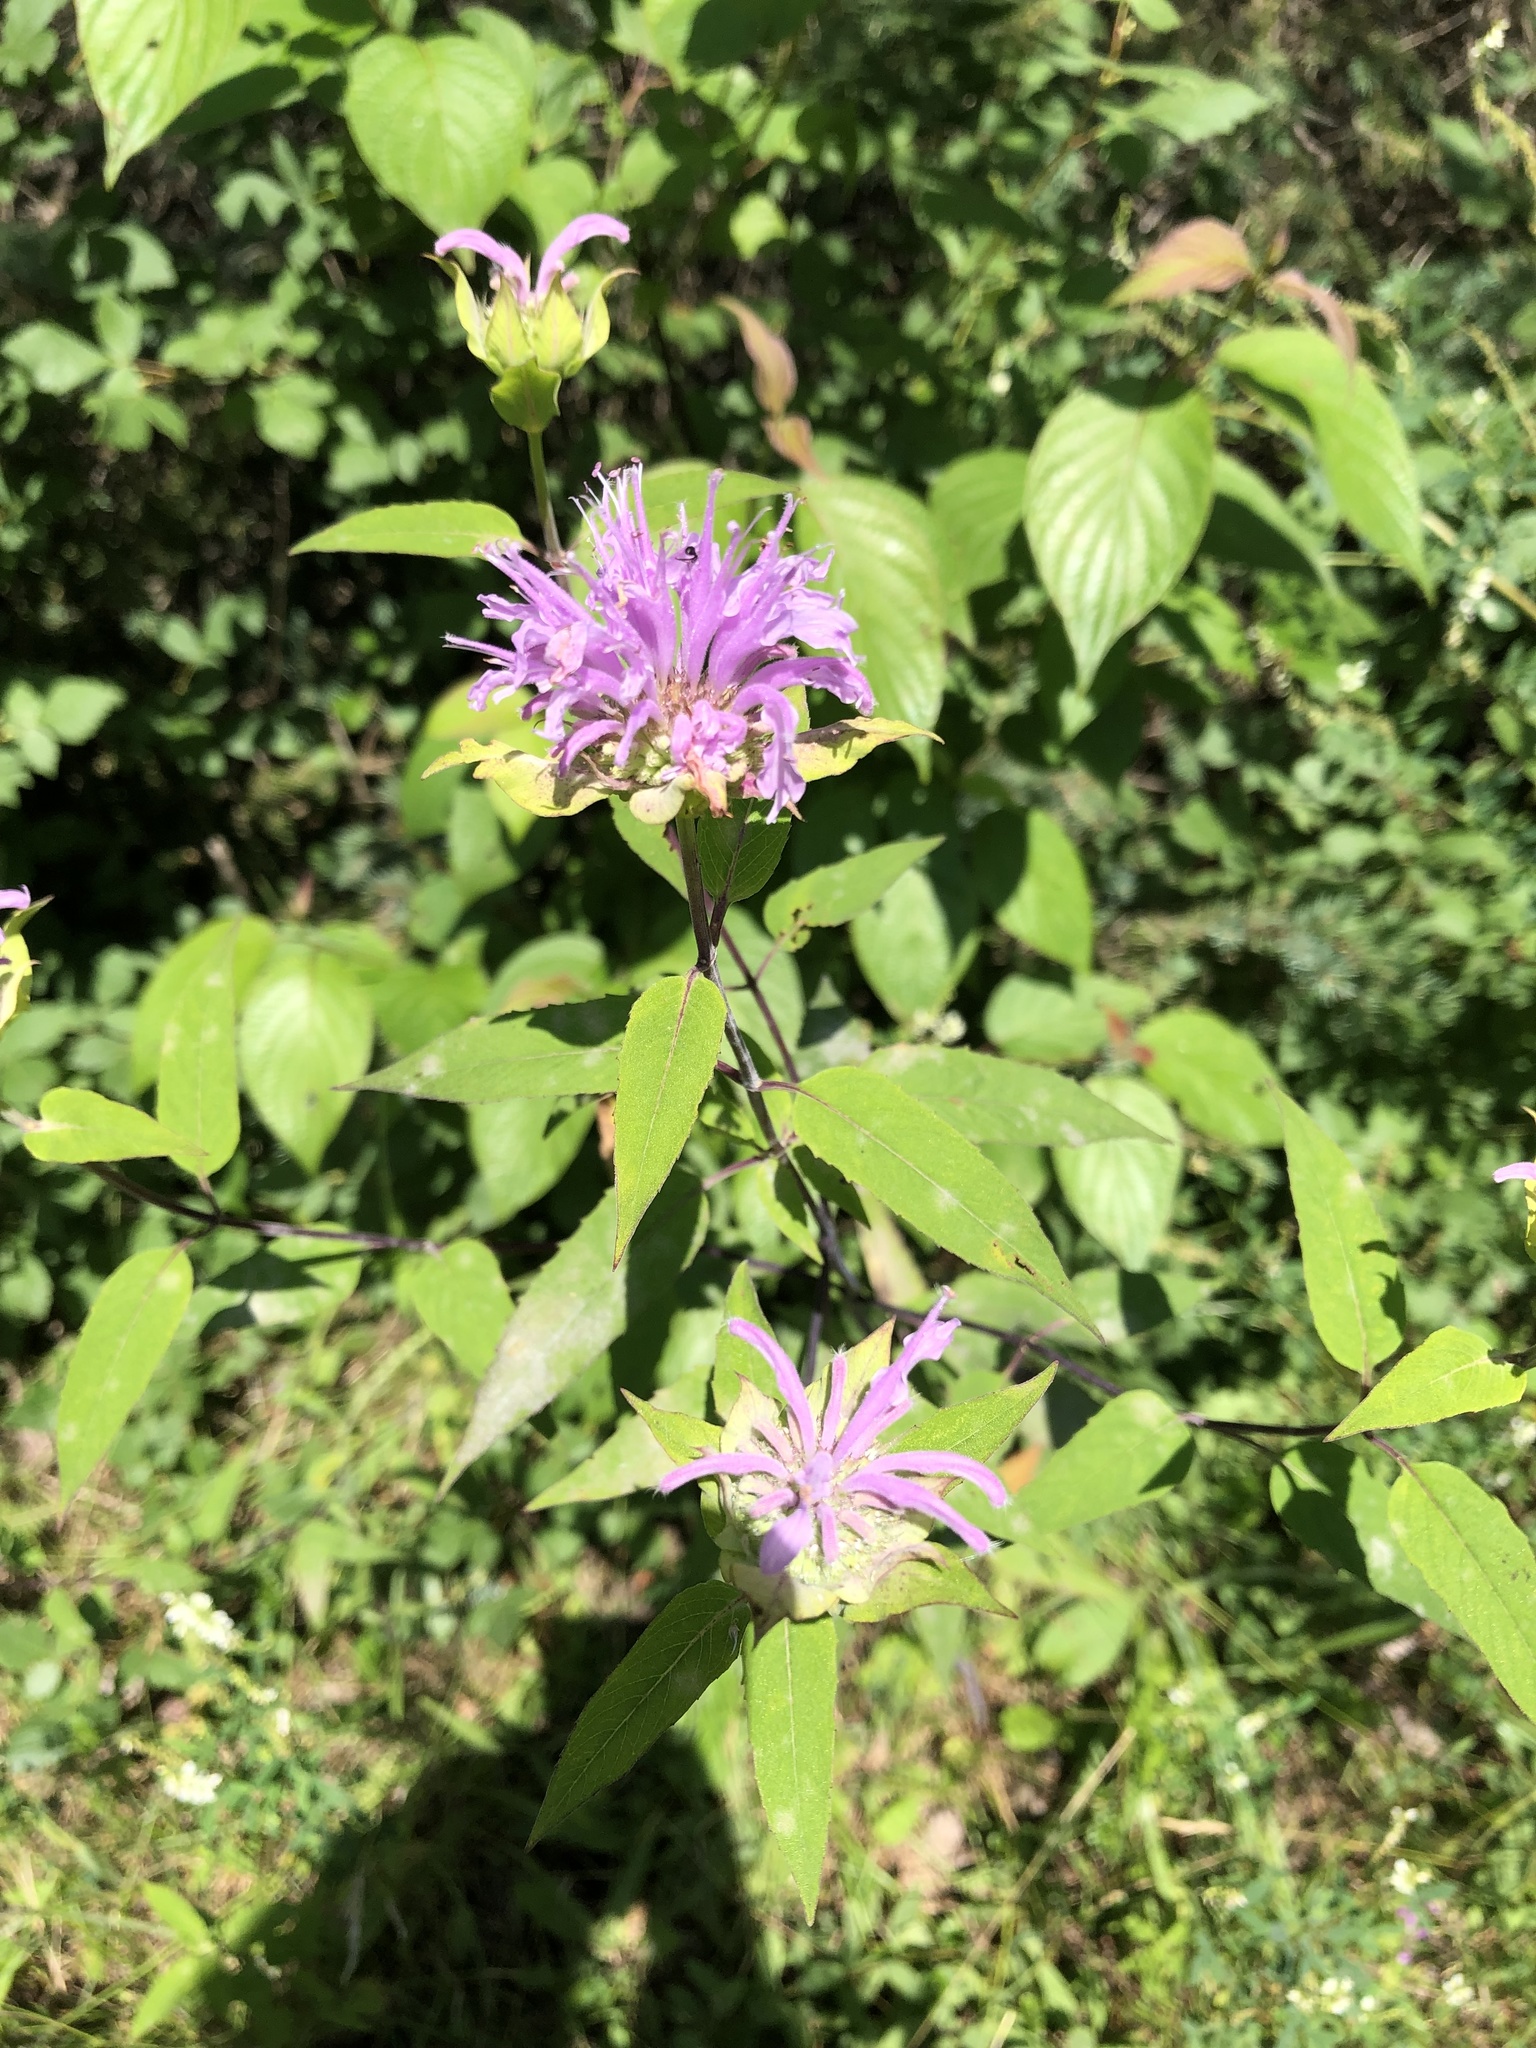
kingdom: Plantae
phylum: Tracheophyta
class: Magnoliopsida
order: Lamiales
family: Lamiaceae
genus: Monarda
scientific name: Monarda fistulosa
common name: Purple beebalm
